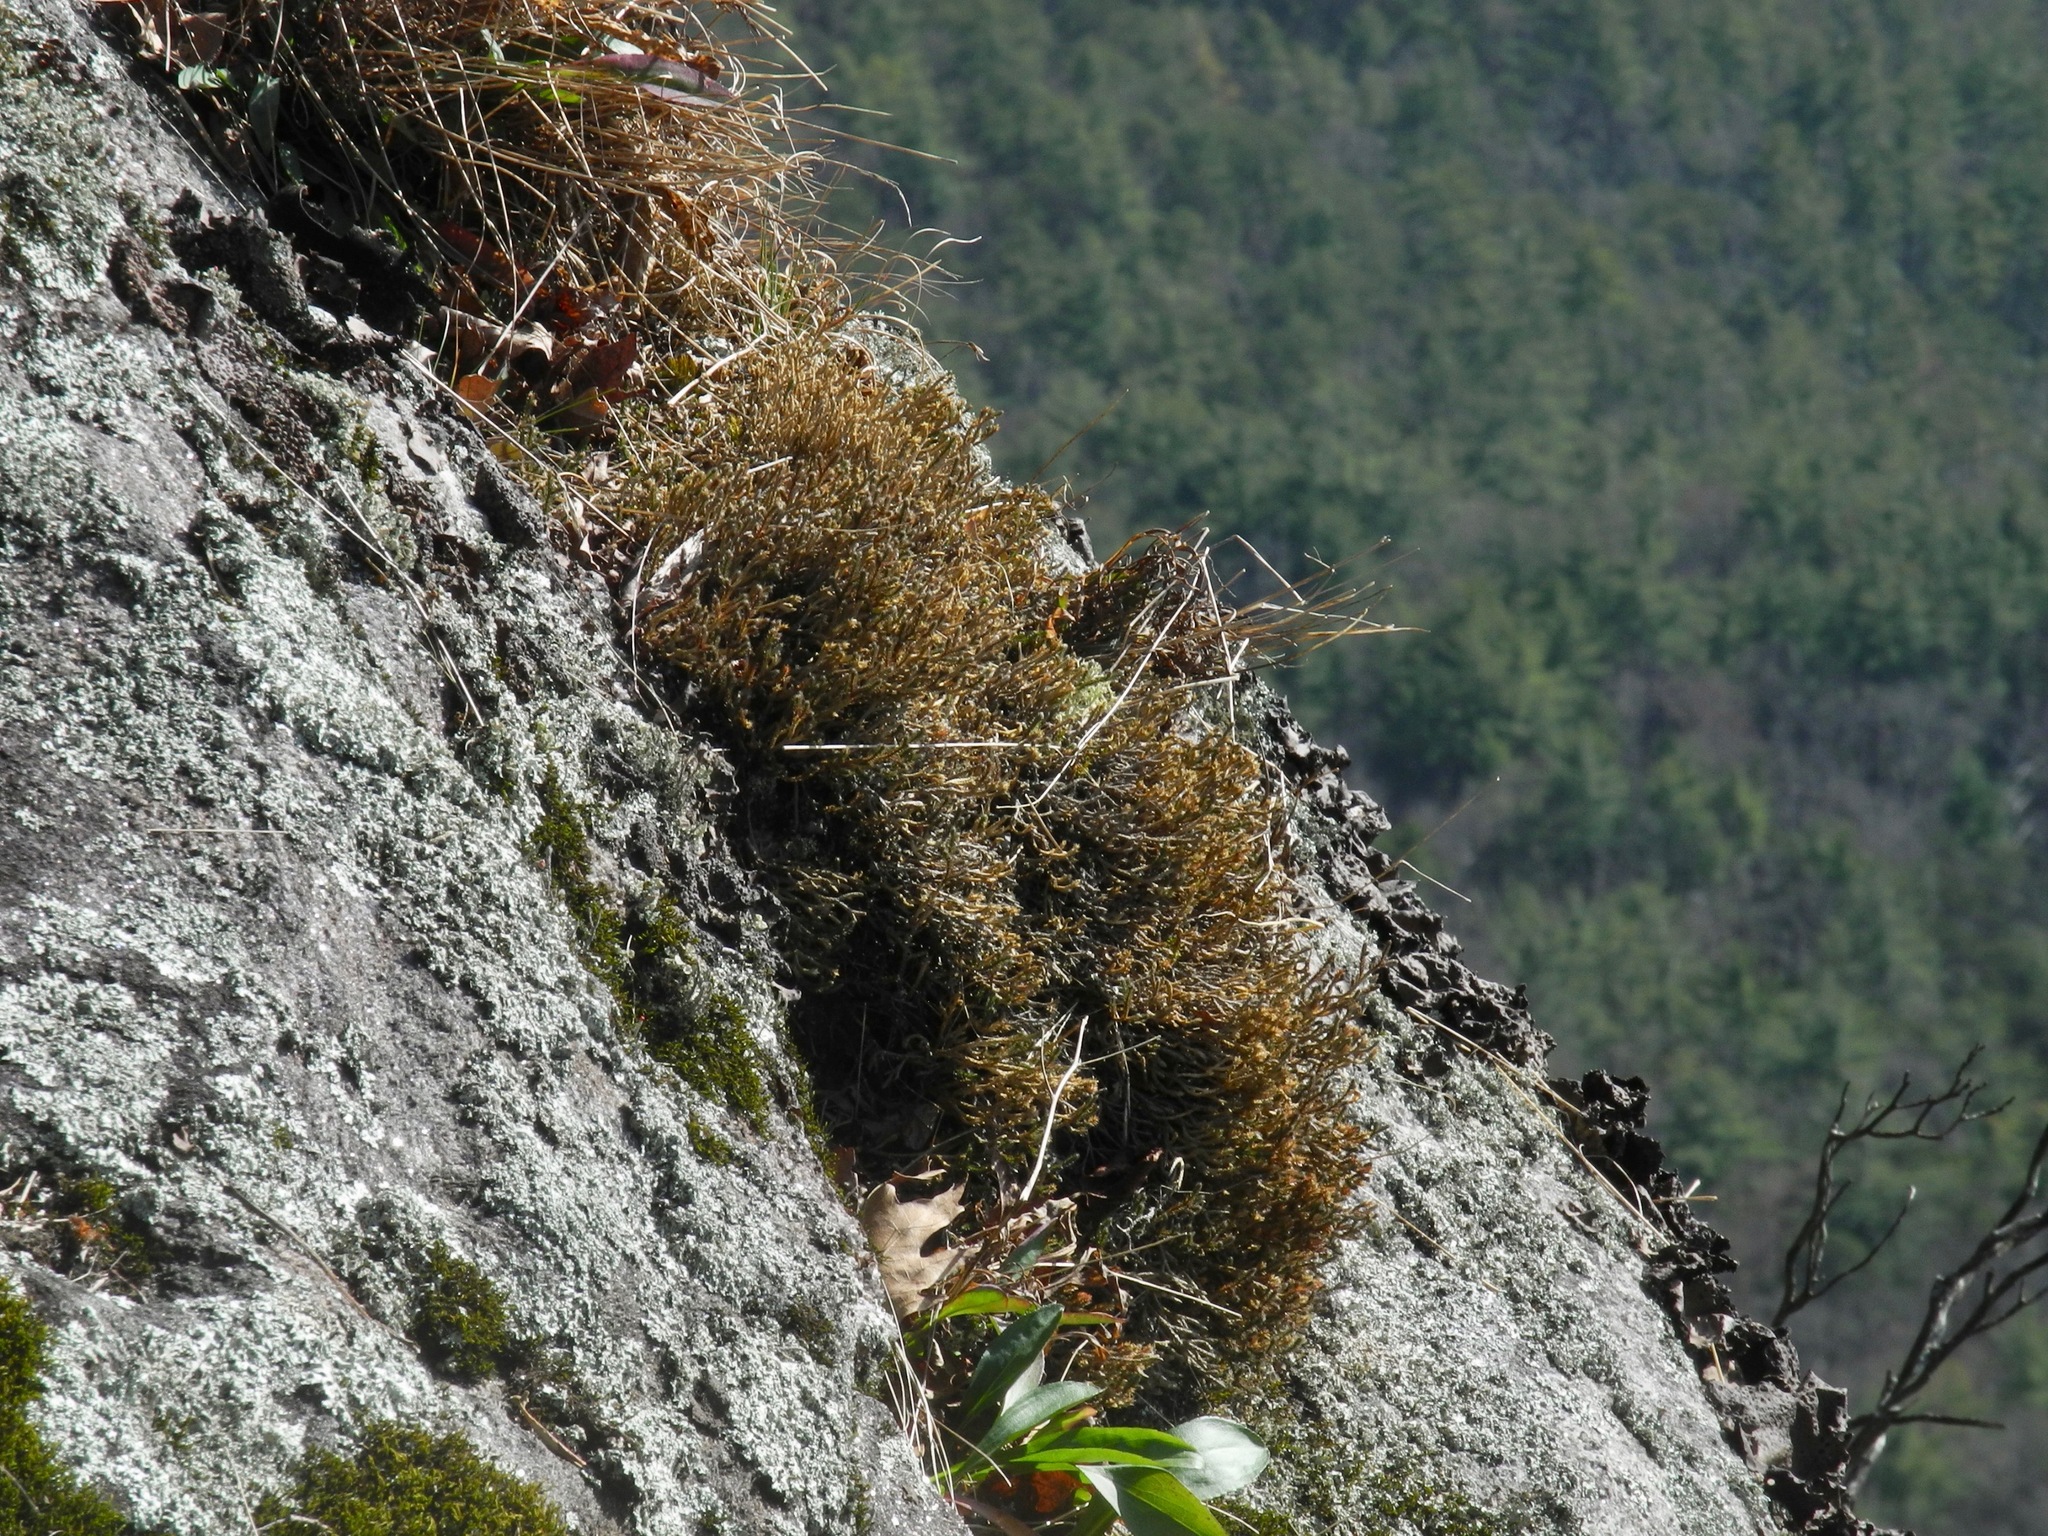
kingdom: Plantae
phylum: Tracheophyta
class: Lycopodiopsida
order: Selaginellales
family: Selaginellaceae
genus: Selaginella
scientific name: Selaginella tortipila
